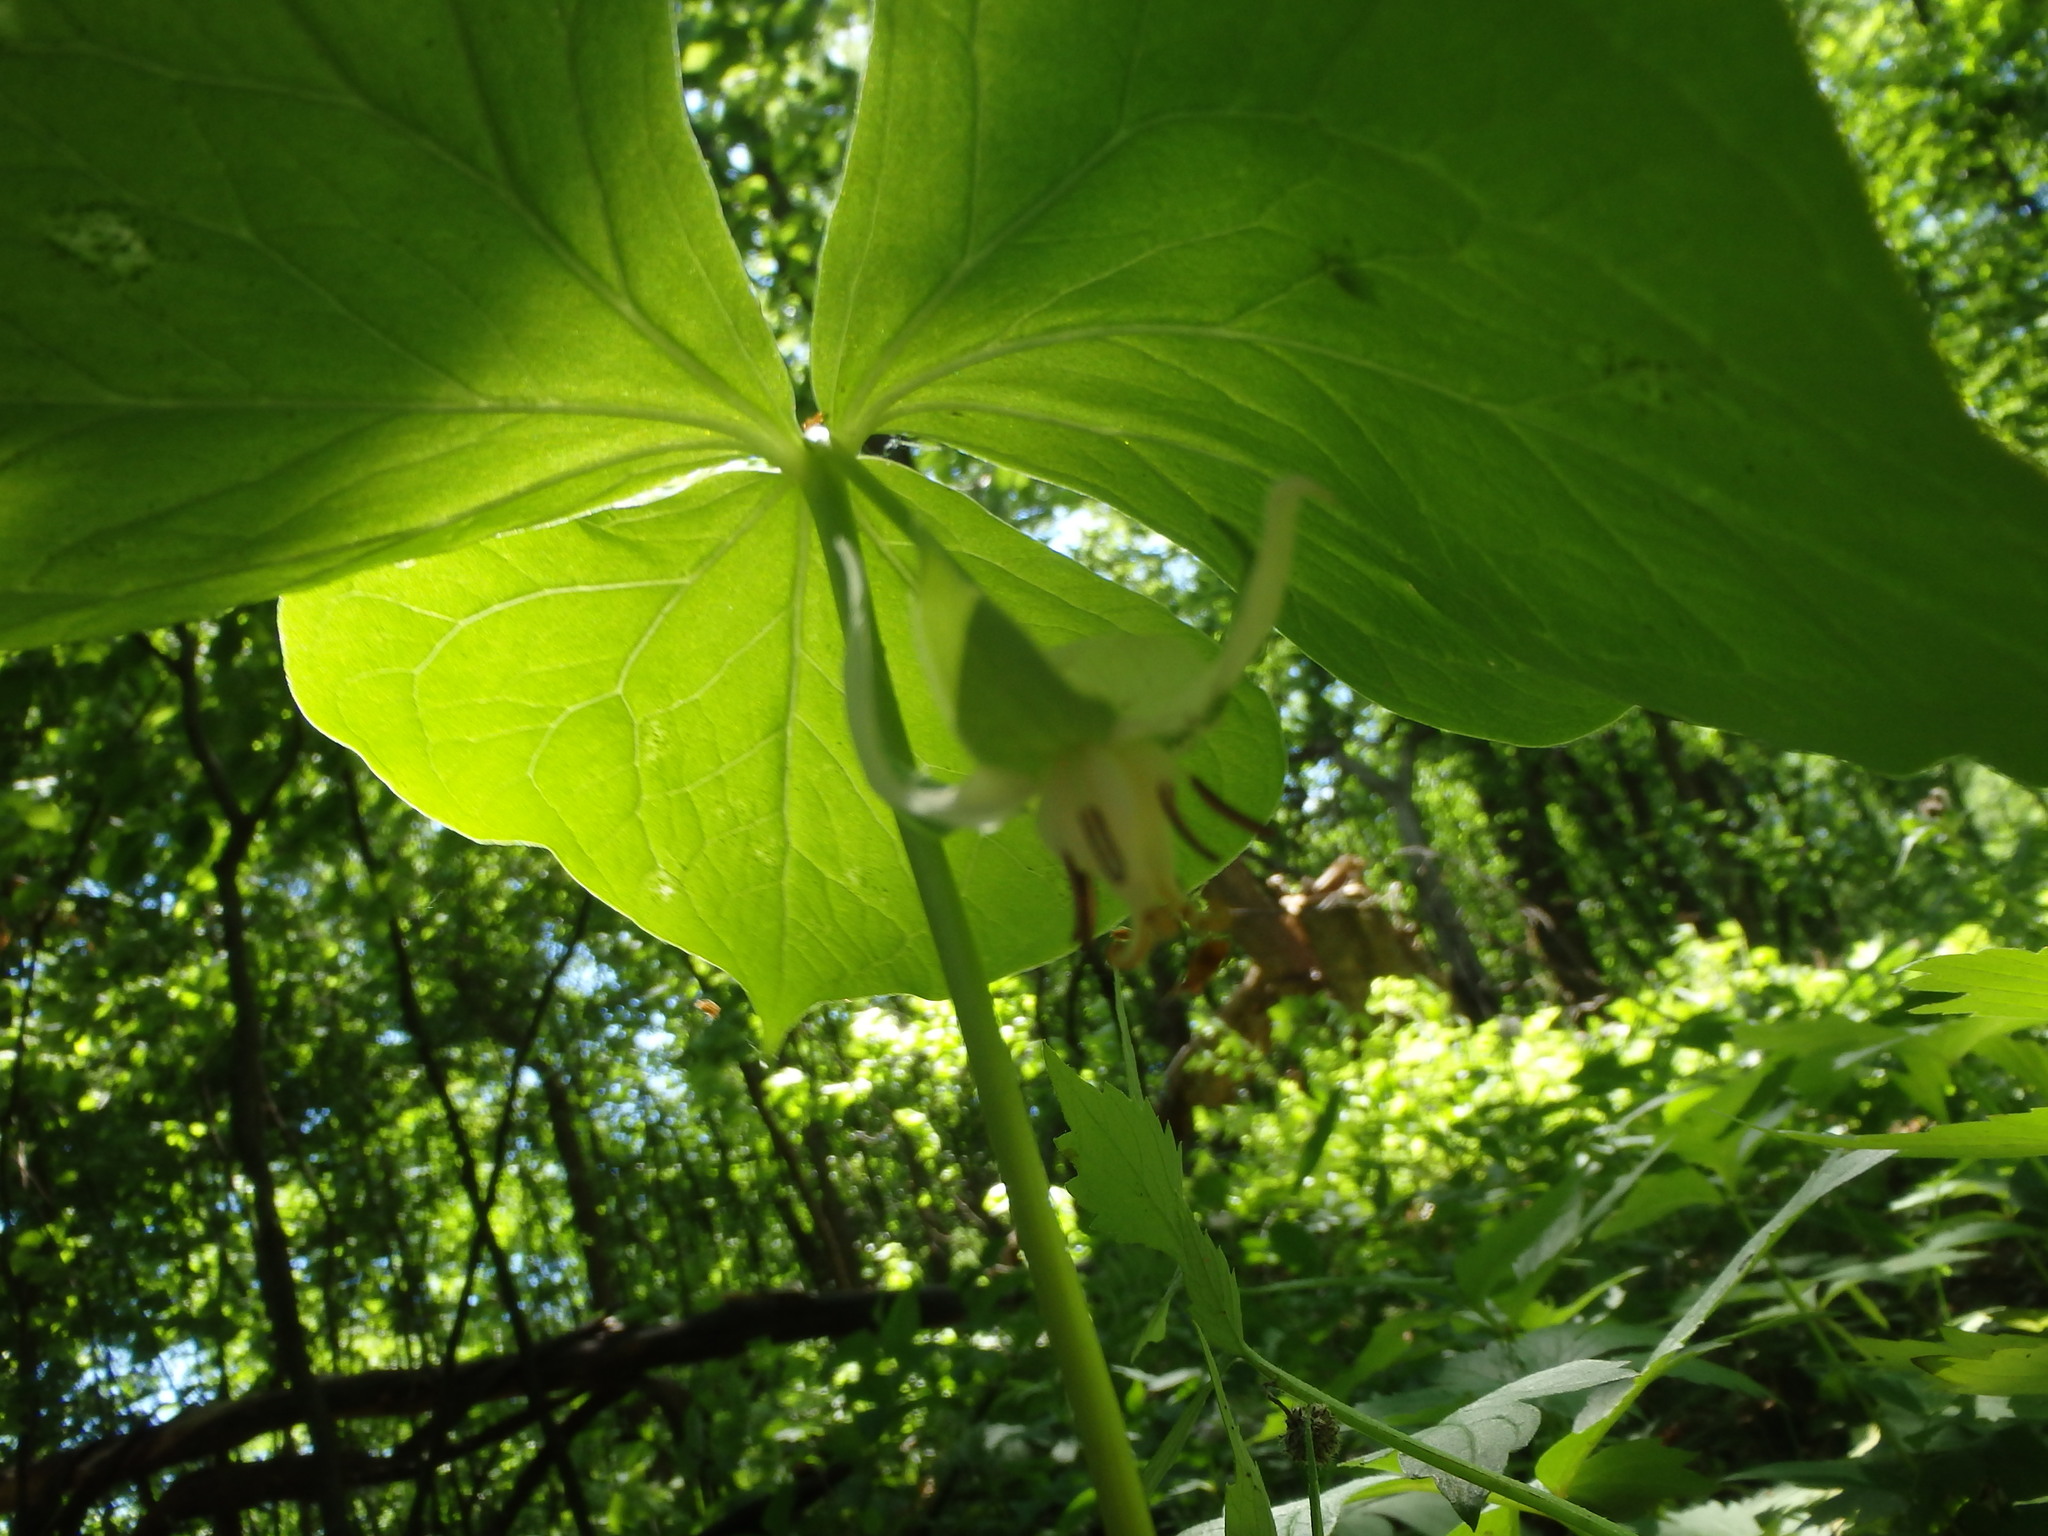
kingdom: Plantae
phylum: Tracheophyta
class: Liliopsida
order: Liliales
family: Melanthiaceae
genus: Trillium
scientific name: Trillium cernuum
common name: Nodding trillium
